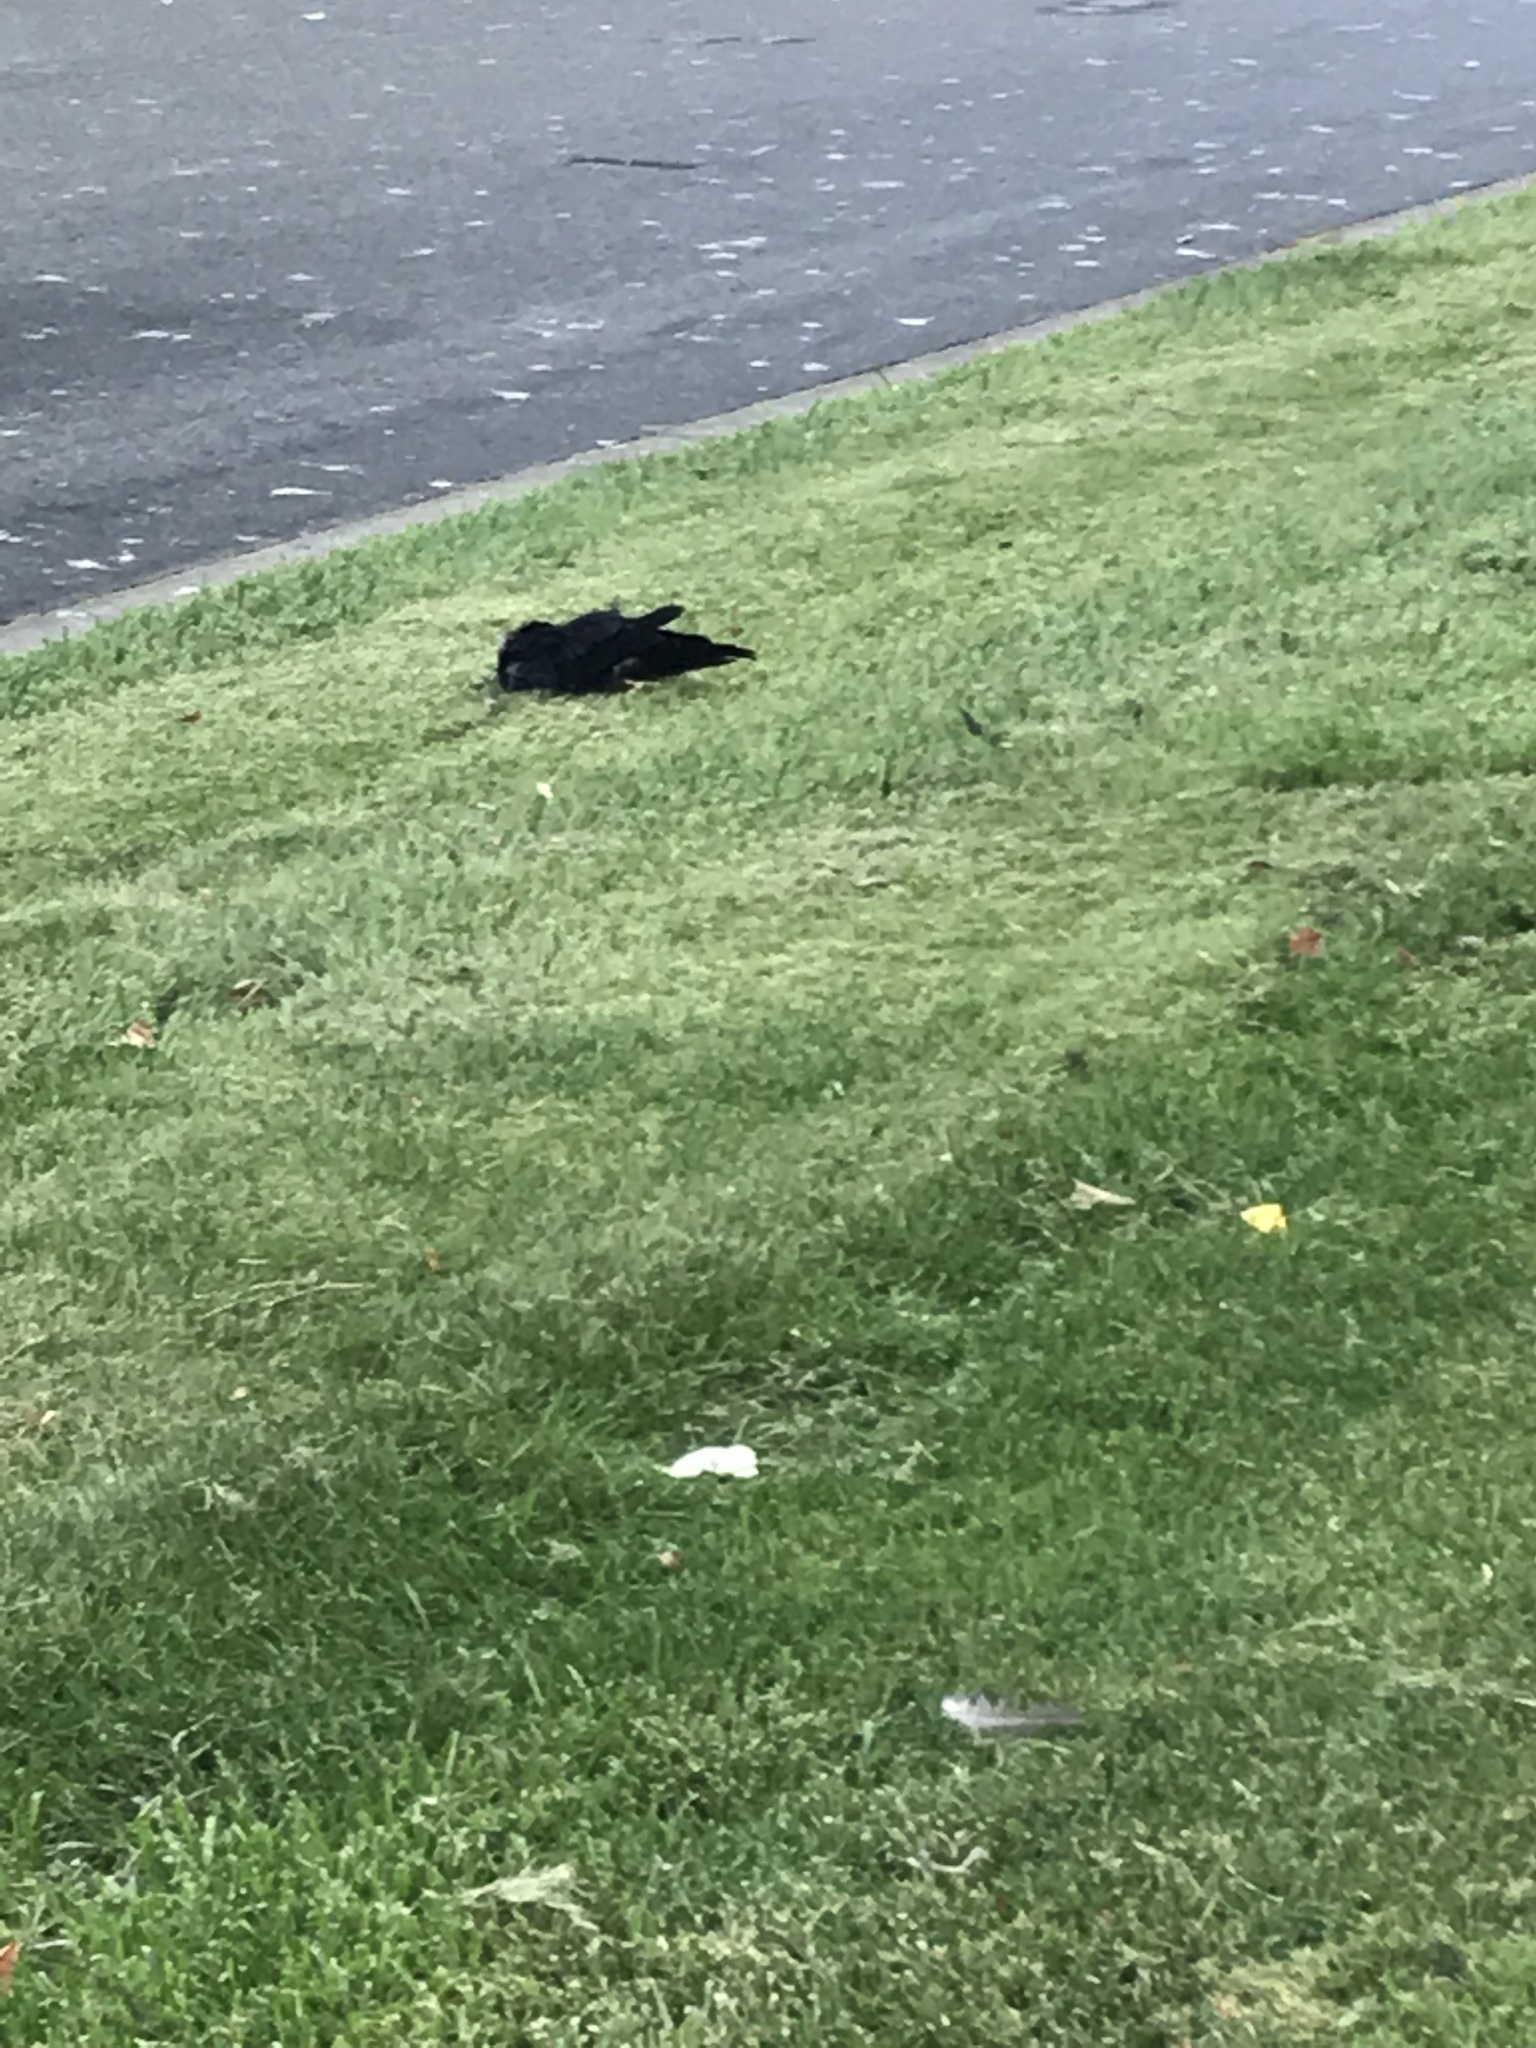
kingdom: Animalia
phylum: Chordata
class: Aves
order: Passeriformes
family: Corvidae
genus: Corvus
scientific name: Corvus brachyrhynchos
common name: American crow
